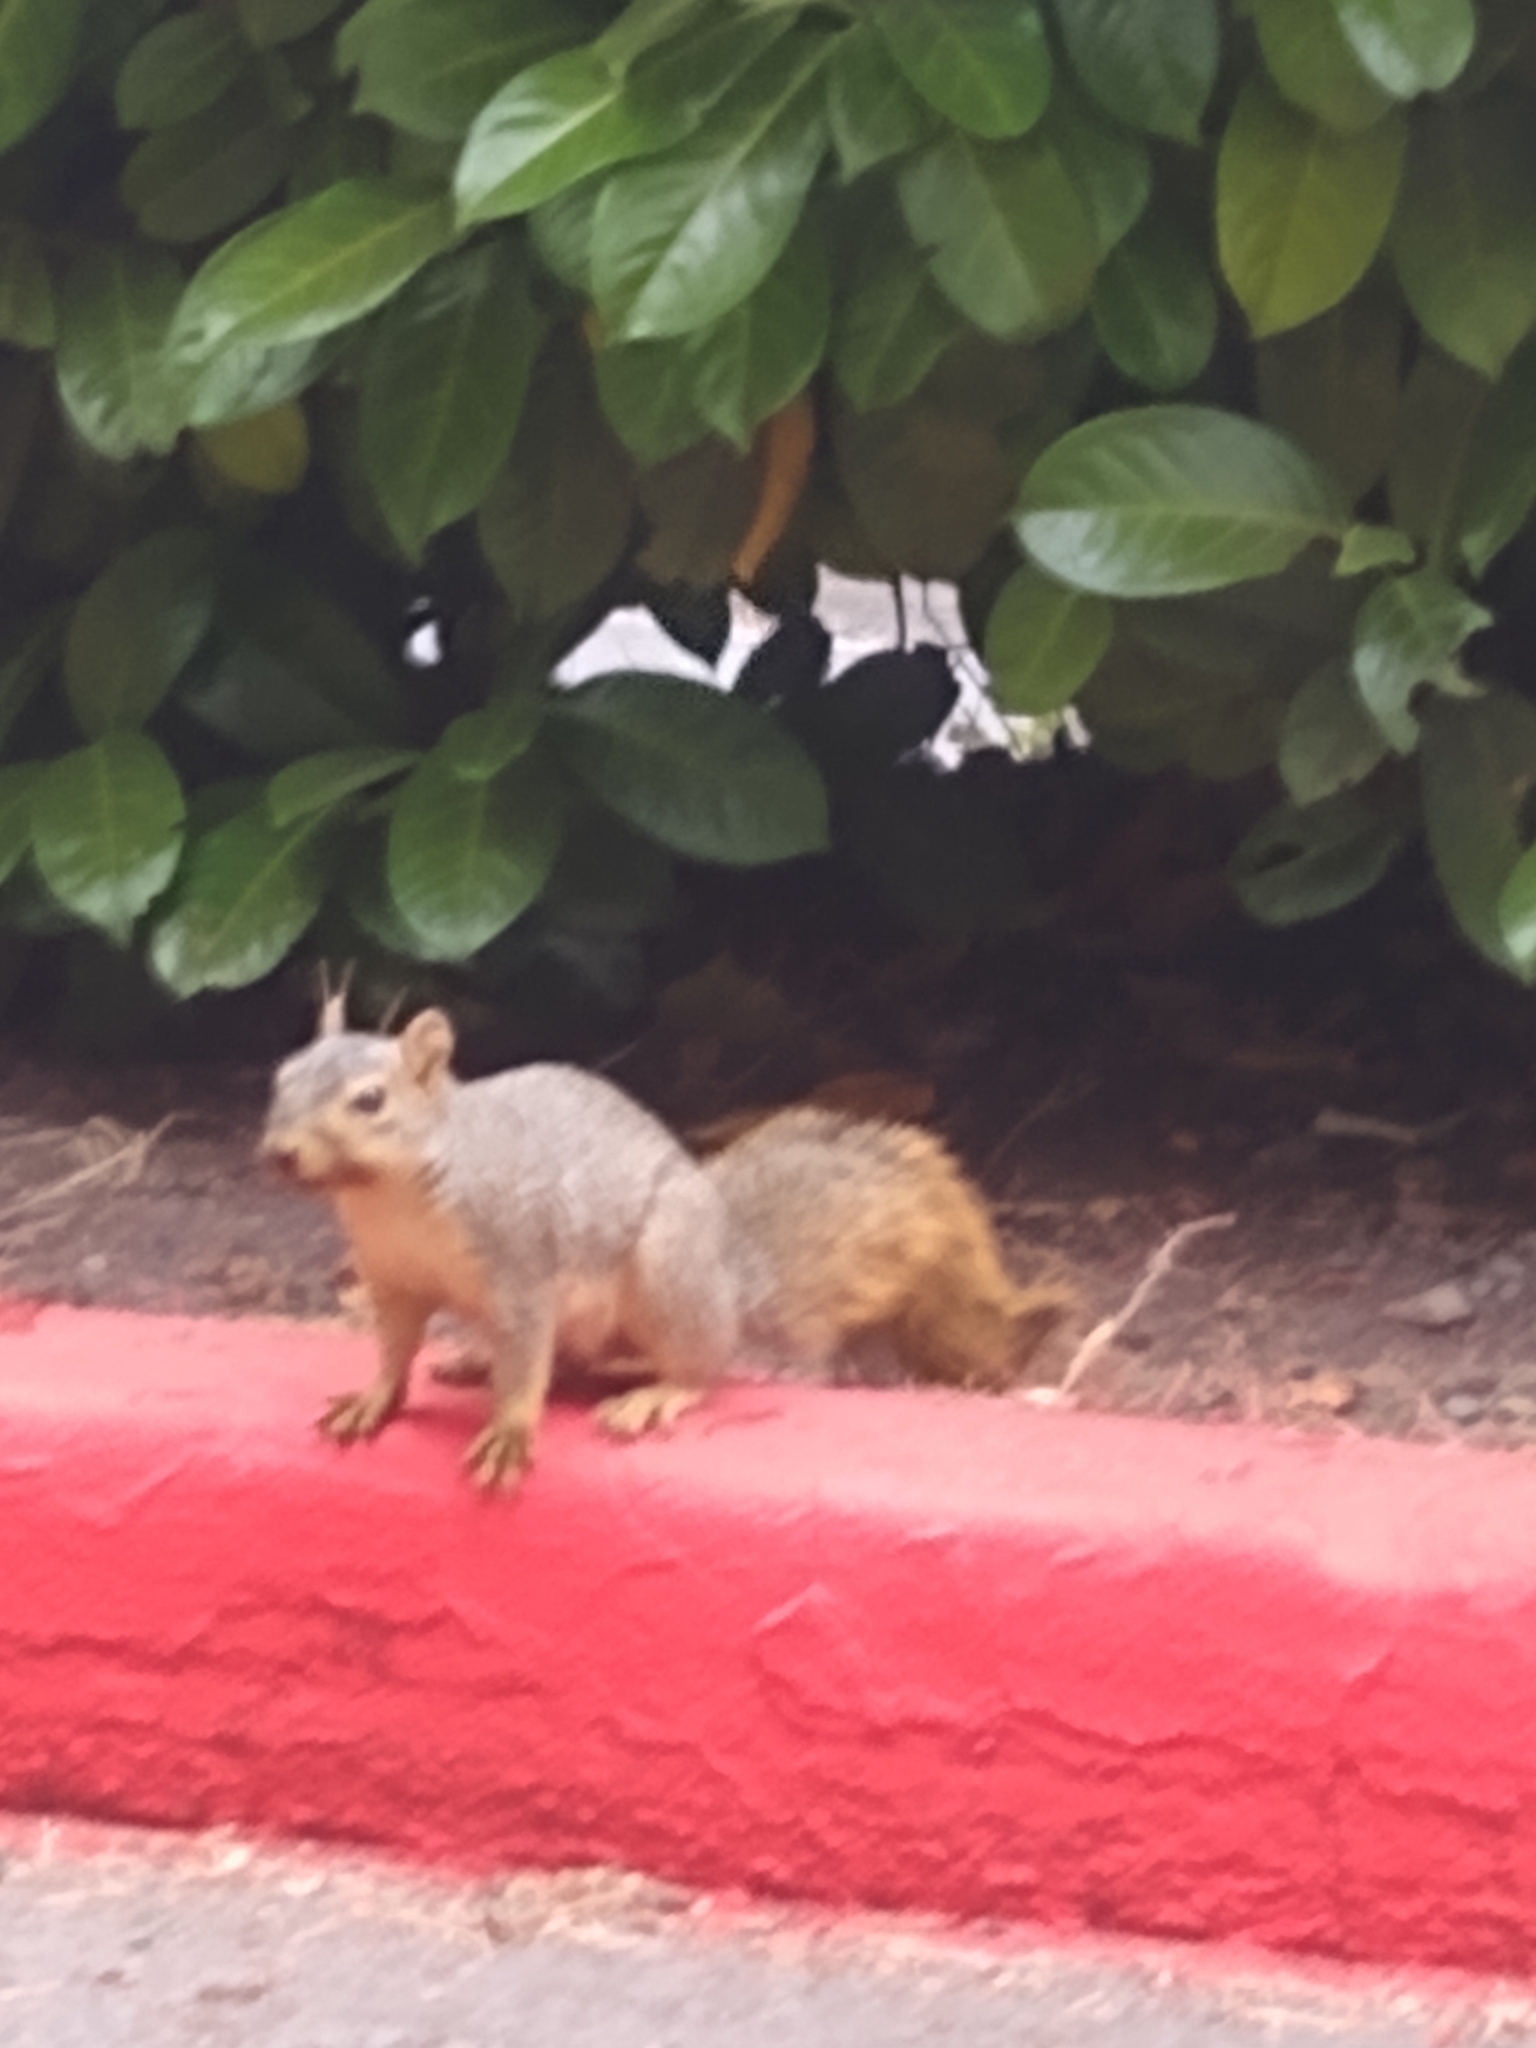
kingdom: Animalia
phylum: Chordata
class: Mammalia
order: Rodentia
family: Sciuridae
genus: Sciurus
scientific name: Sciurus niger
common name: Fox squirrel
